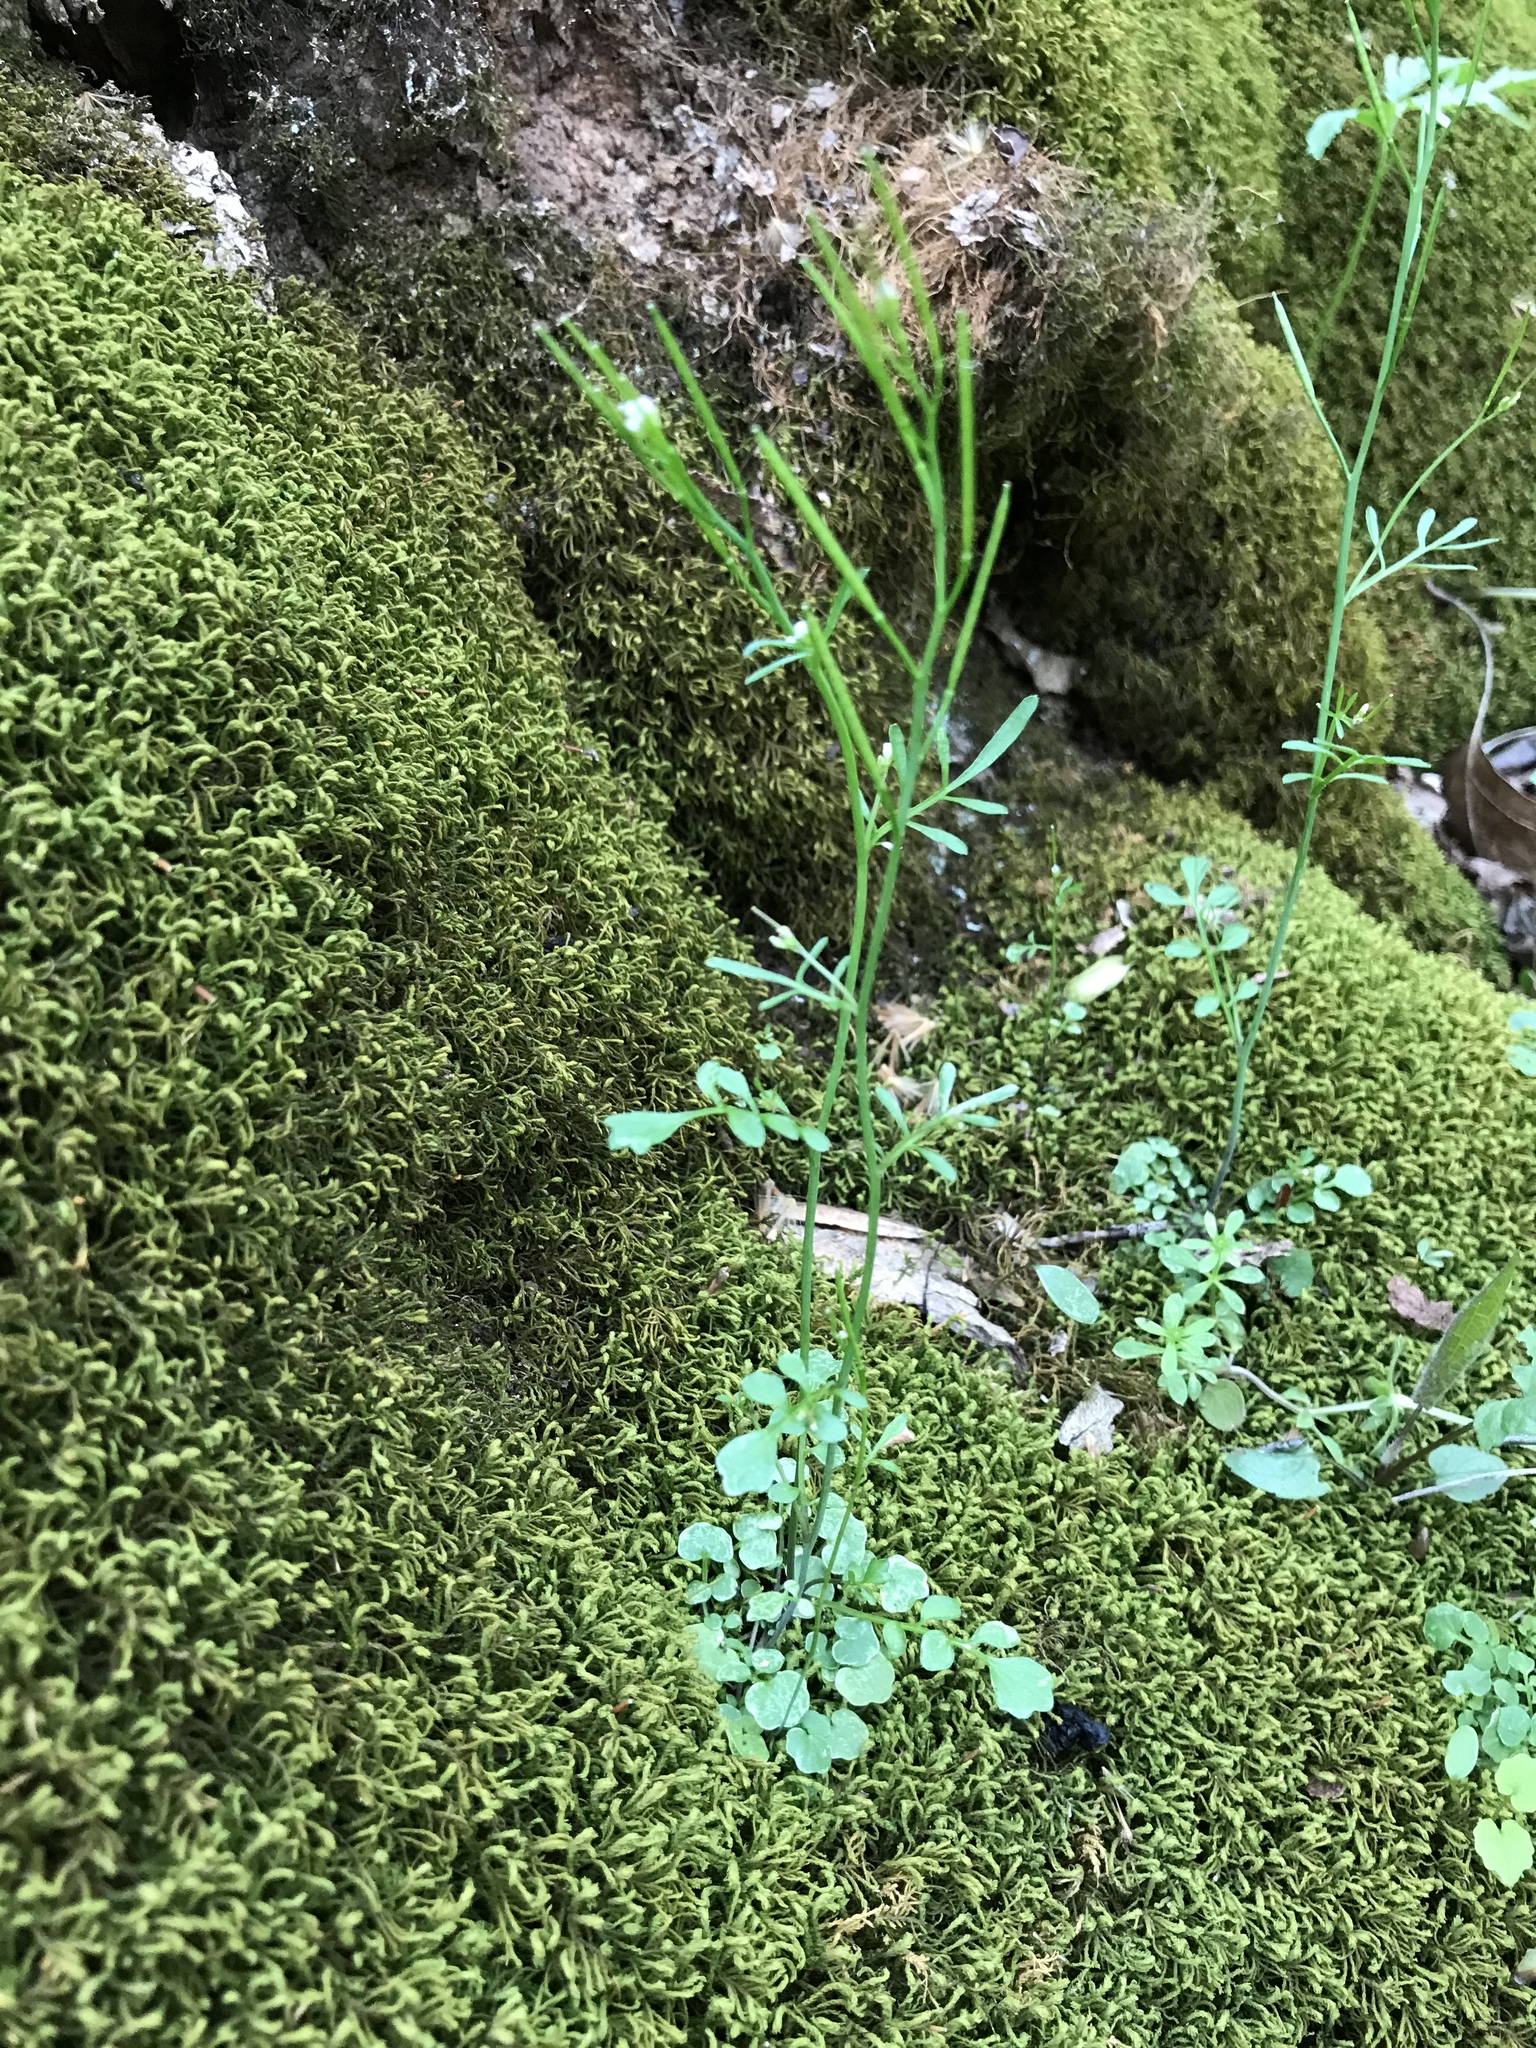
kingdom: Plantae
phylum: Tracheophyta
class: Magnoliopsida
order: Brassicales
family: Brassicaceae
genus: Cardamine
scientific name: Cardamine hirsuta
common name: Hairy bittercress
